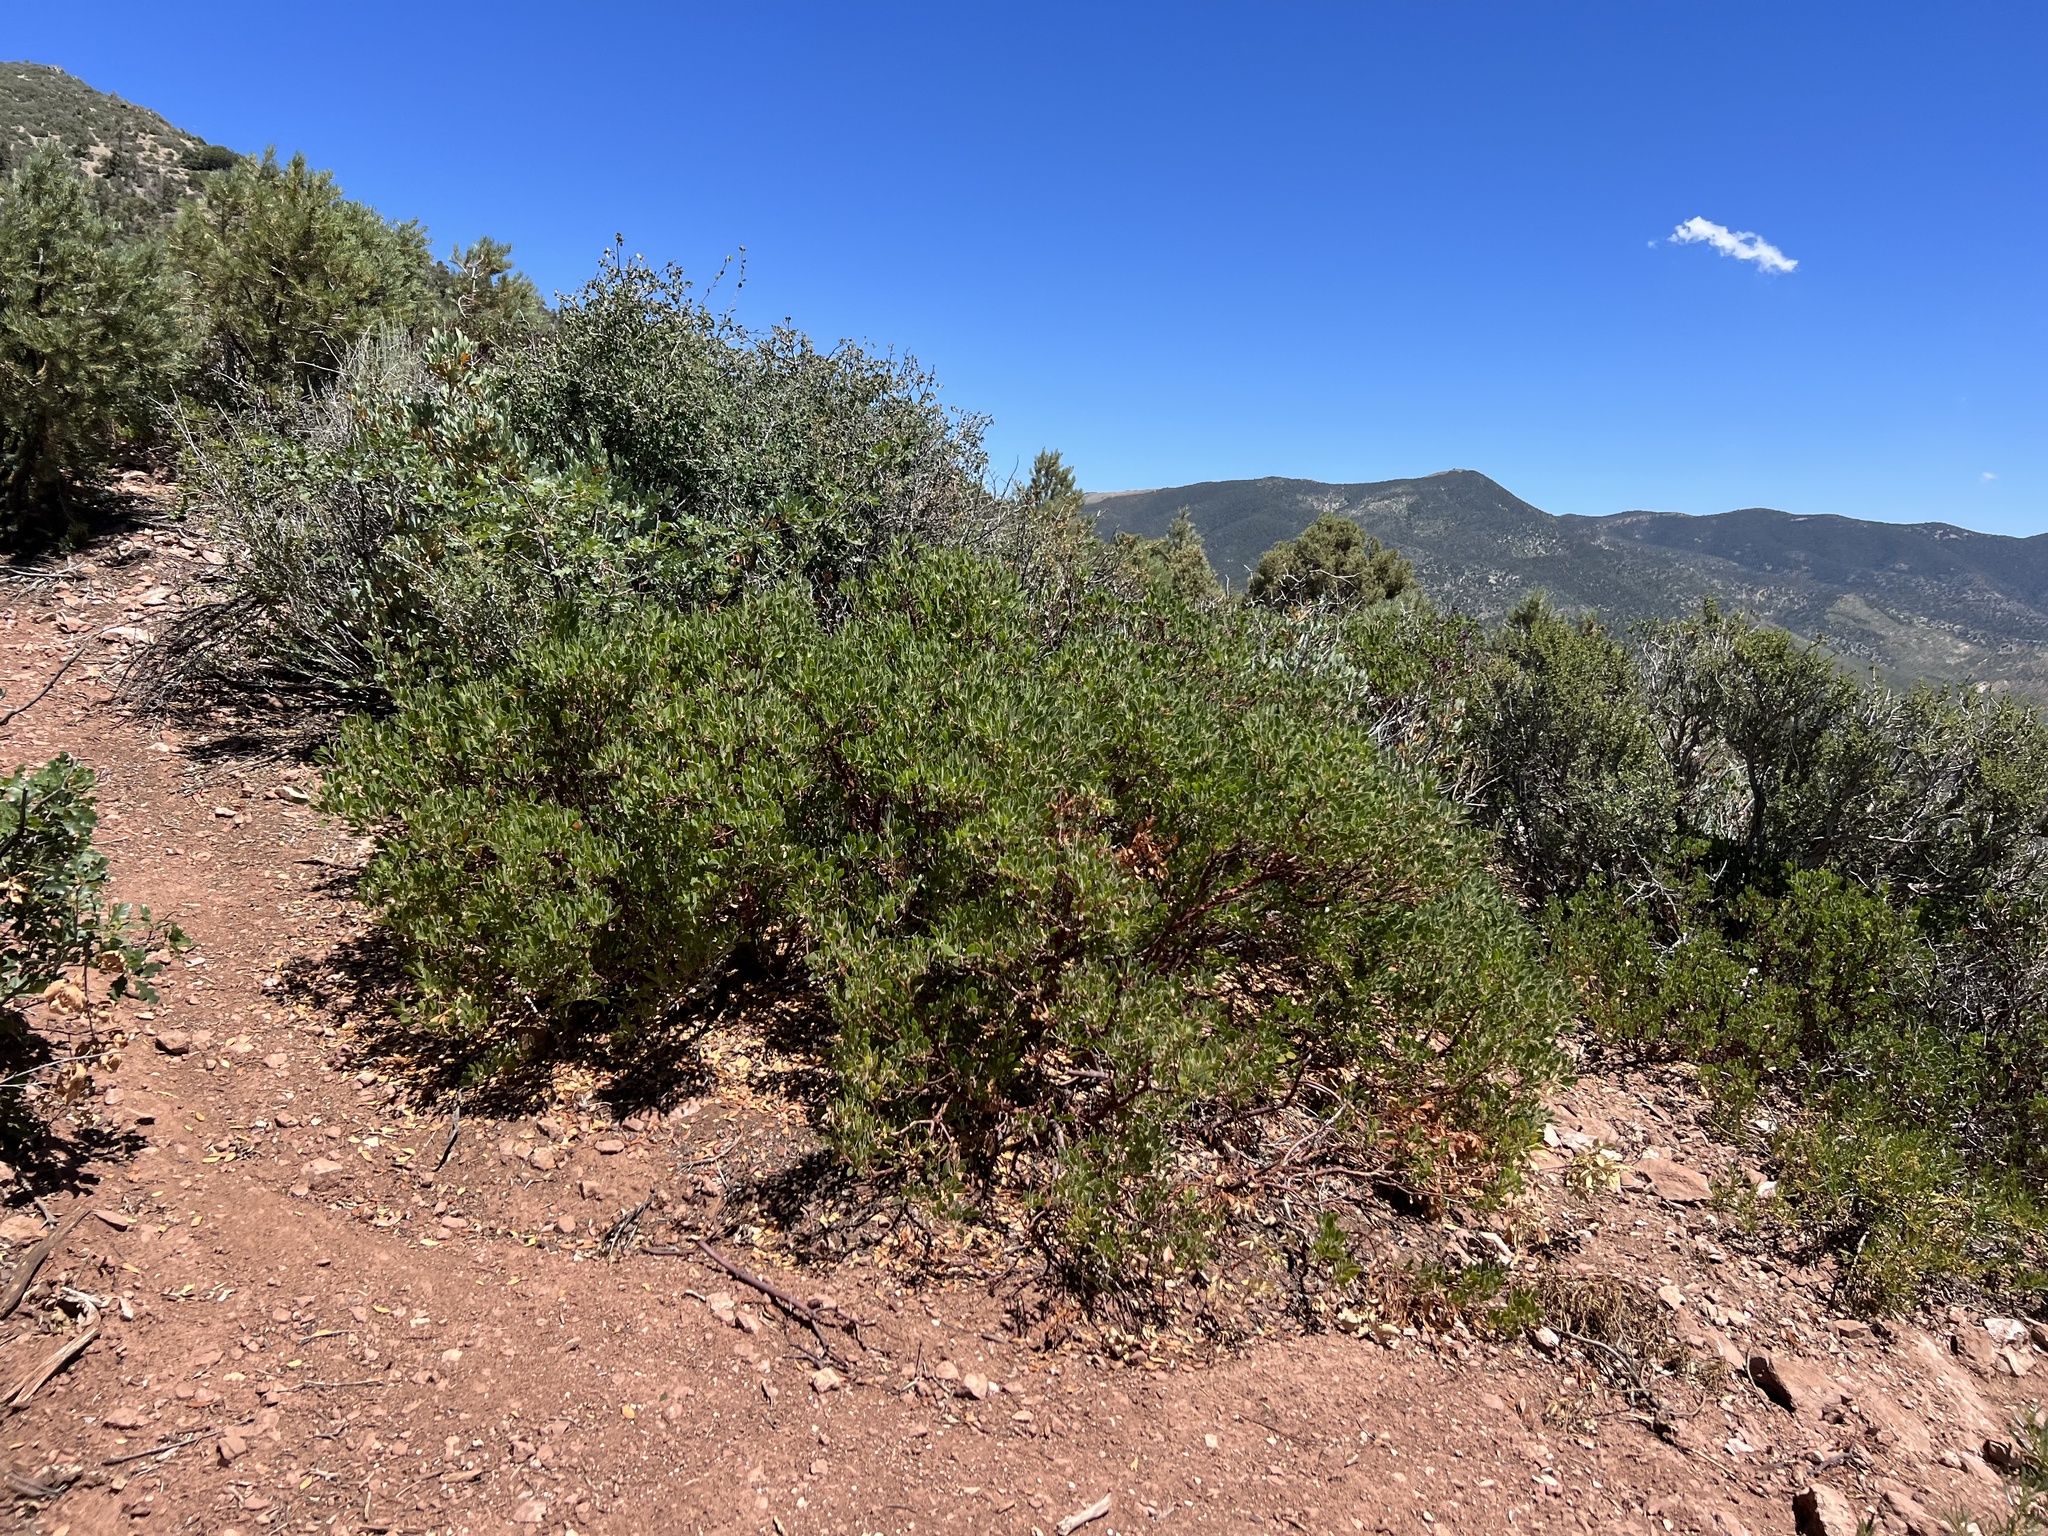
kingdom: Plantae
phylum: Tracheophyta
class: Magnoliopsida
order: Ericales
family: Ericaceae
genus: Arctostaphylos
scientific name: Arctostaphylos pungens
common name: Mexican manzanita
